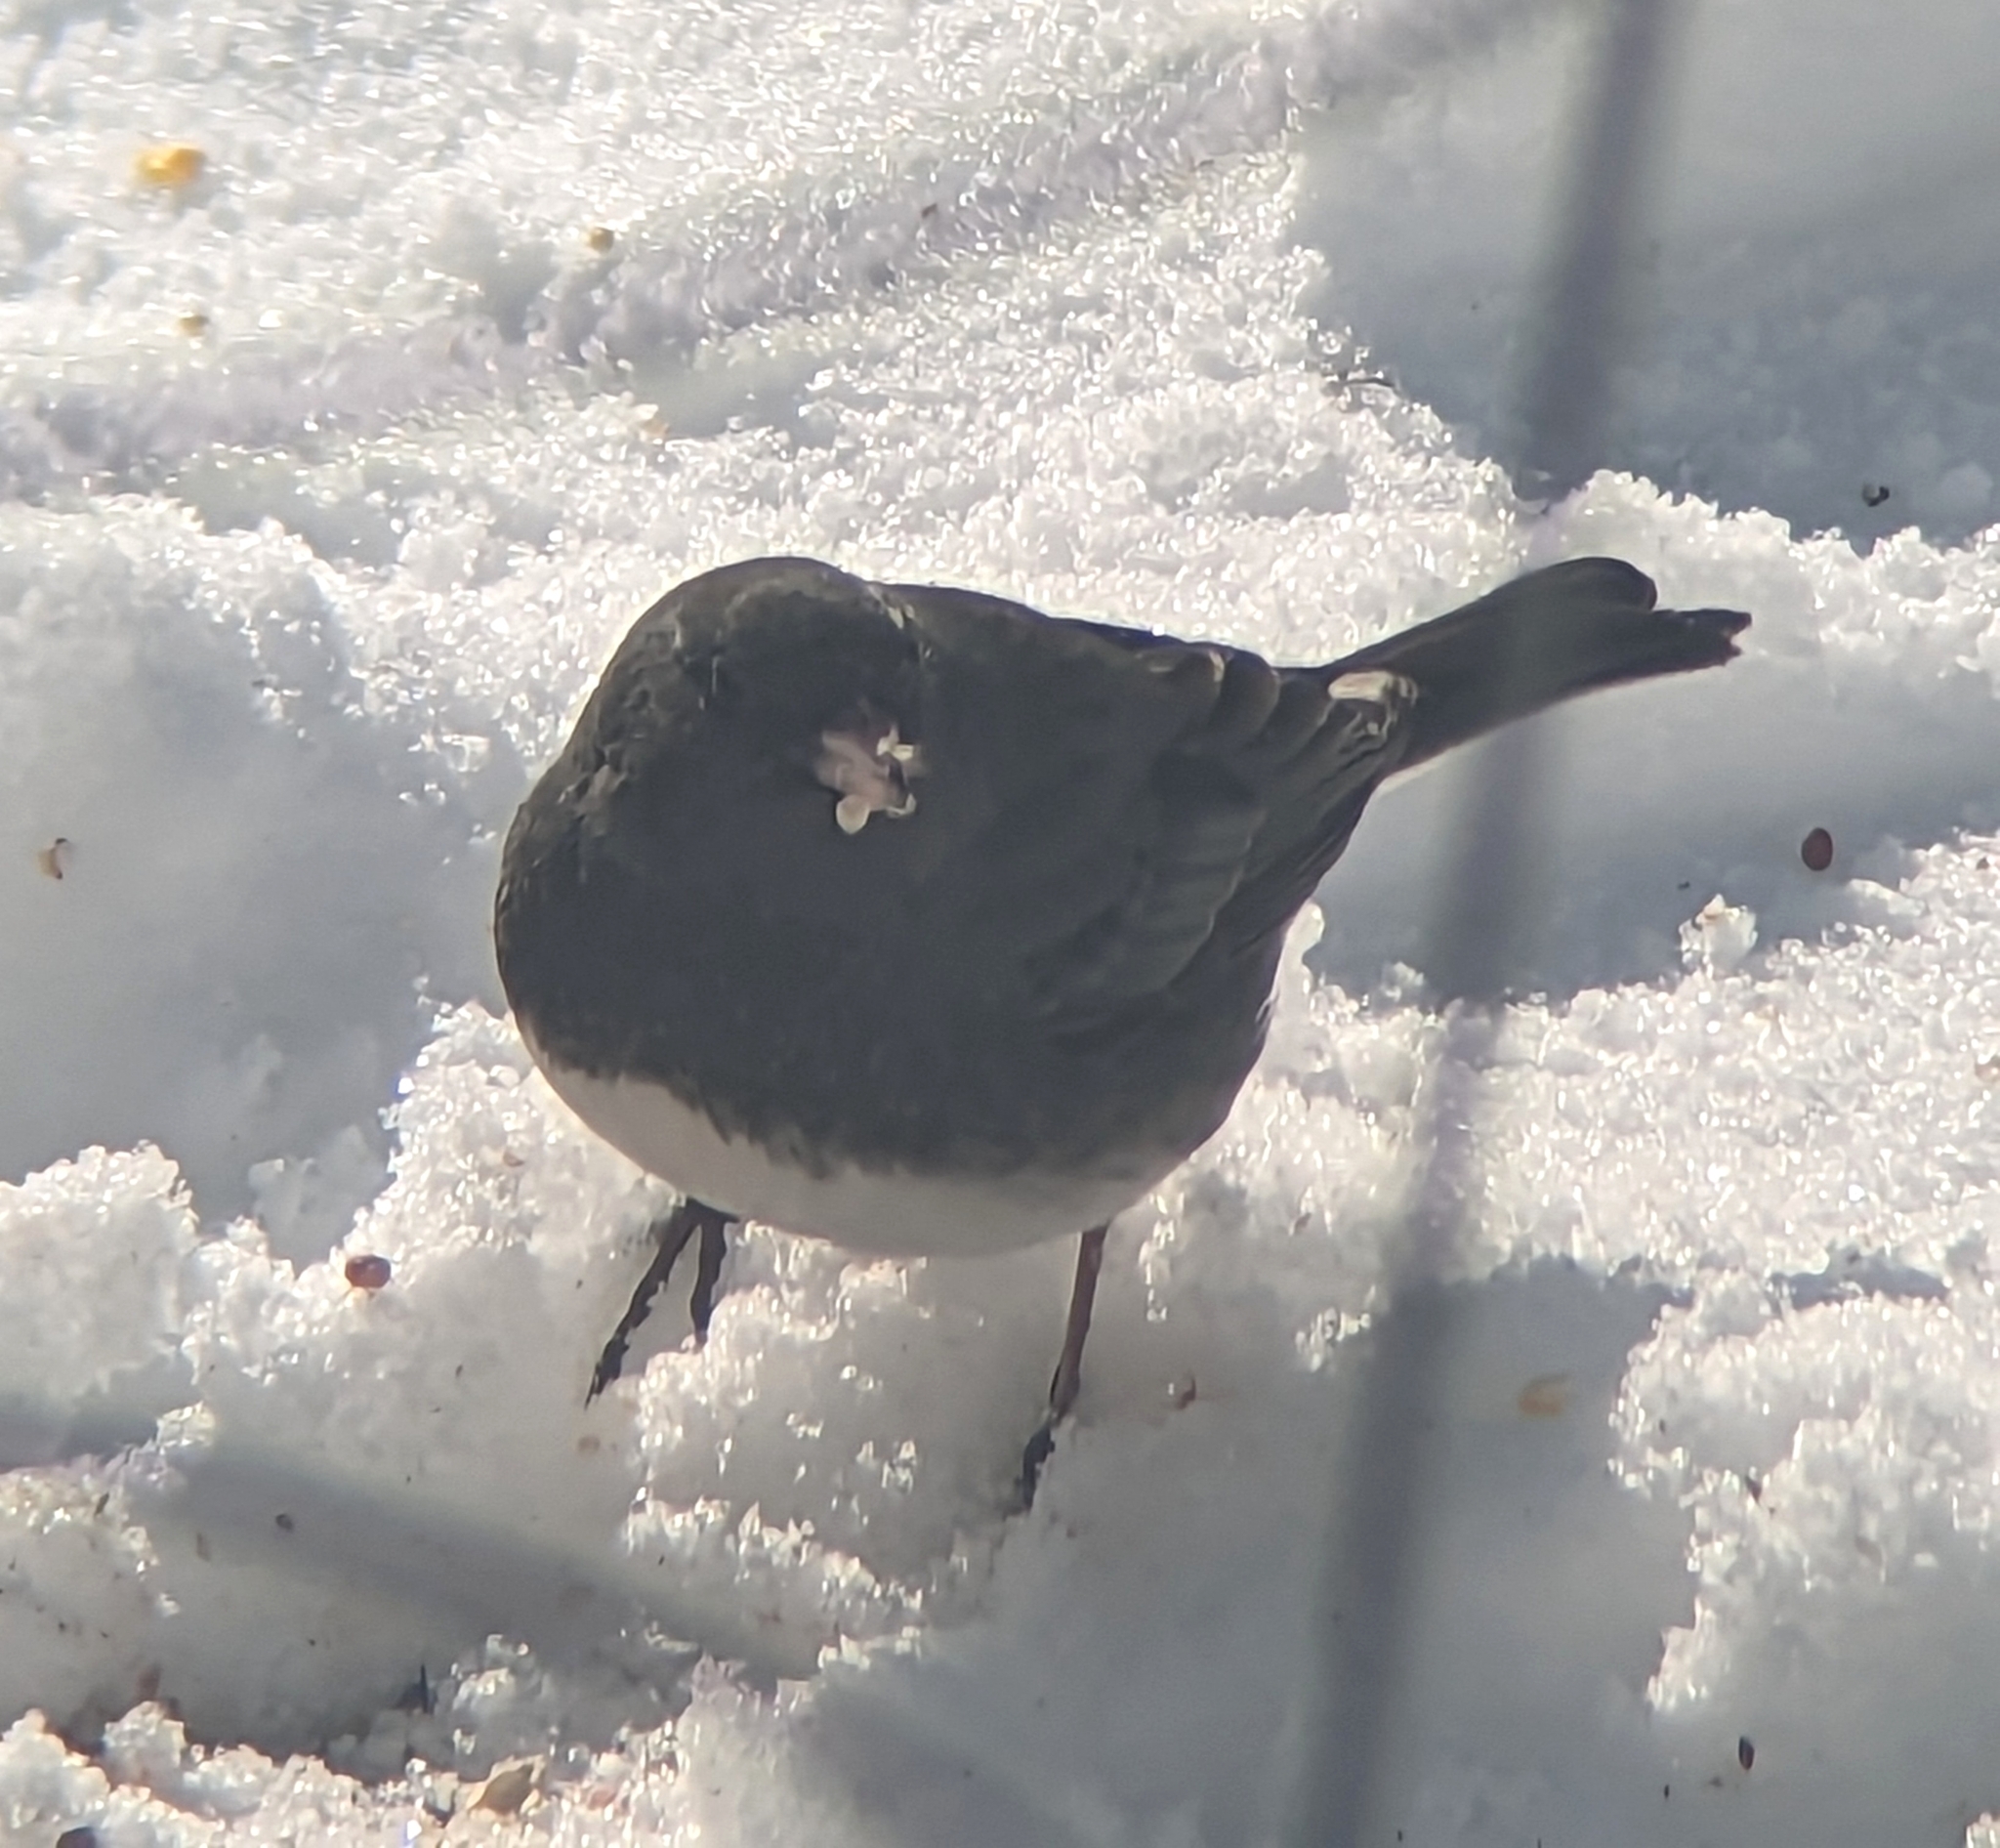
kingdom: Animalia
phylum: Chordata
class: Aves
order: Passeriformes
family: Passerellidae
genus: Junco
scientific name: Junco hyemalis
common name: Dark-eyed junco
